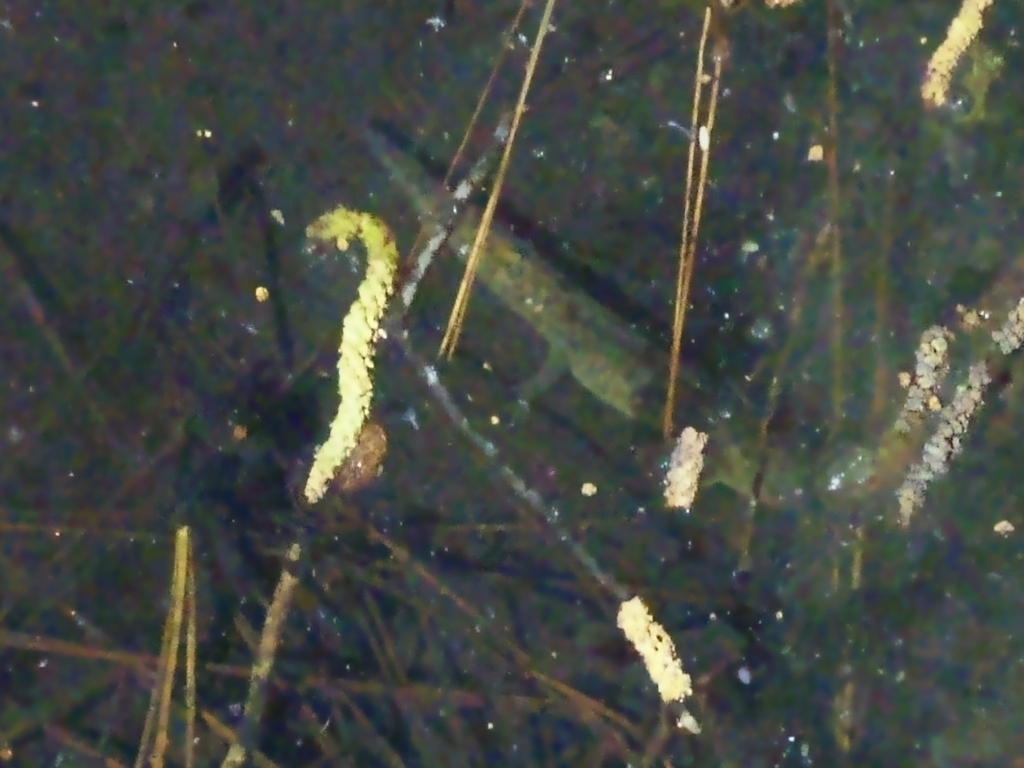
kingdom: Animalia
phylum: Chordata
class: Amphibia
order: Caudata
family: Ambystomatidae
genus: Ambystoma
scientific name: Ambystoma flavipiperatum
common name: Yellow-peppered salamander
